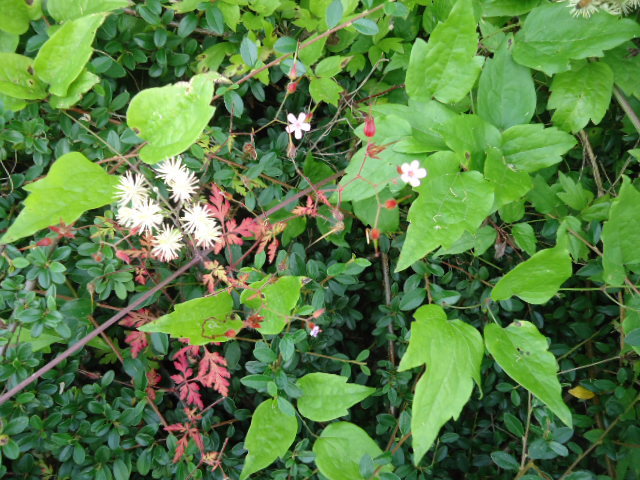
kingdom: Plantae
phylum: Tracheophyta
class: Magnoliopsida
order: Geraniales
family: Geraniaceae
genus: Geranium
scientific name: Geranium robertianum
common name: Herb-robert
